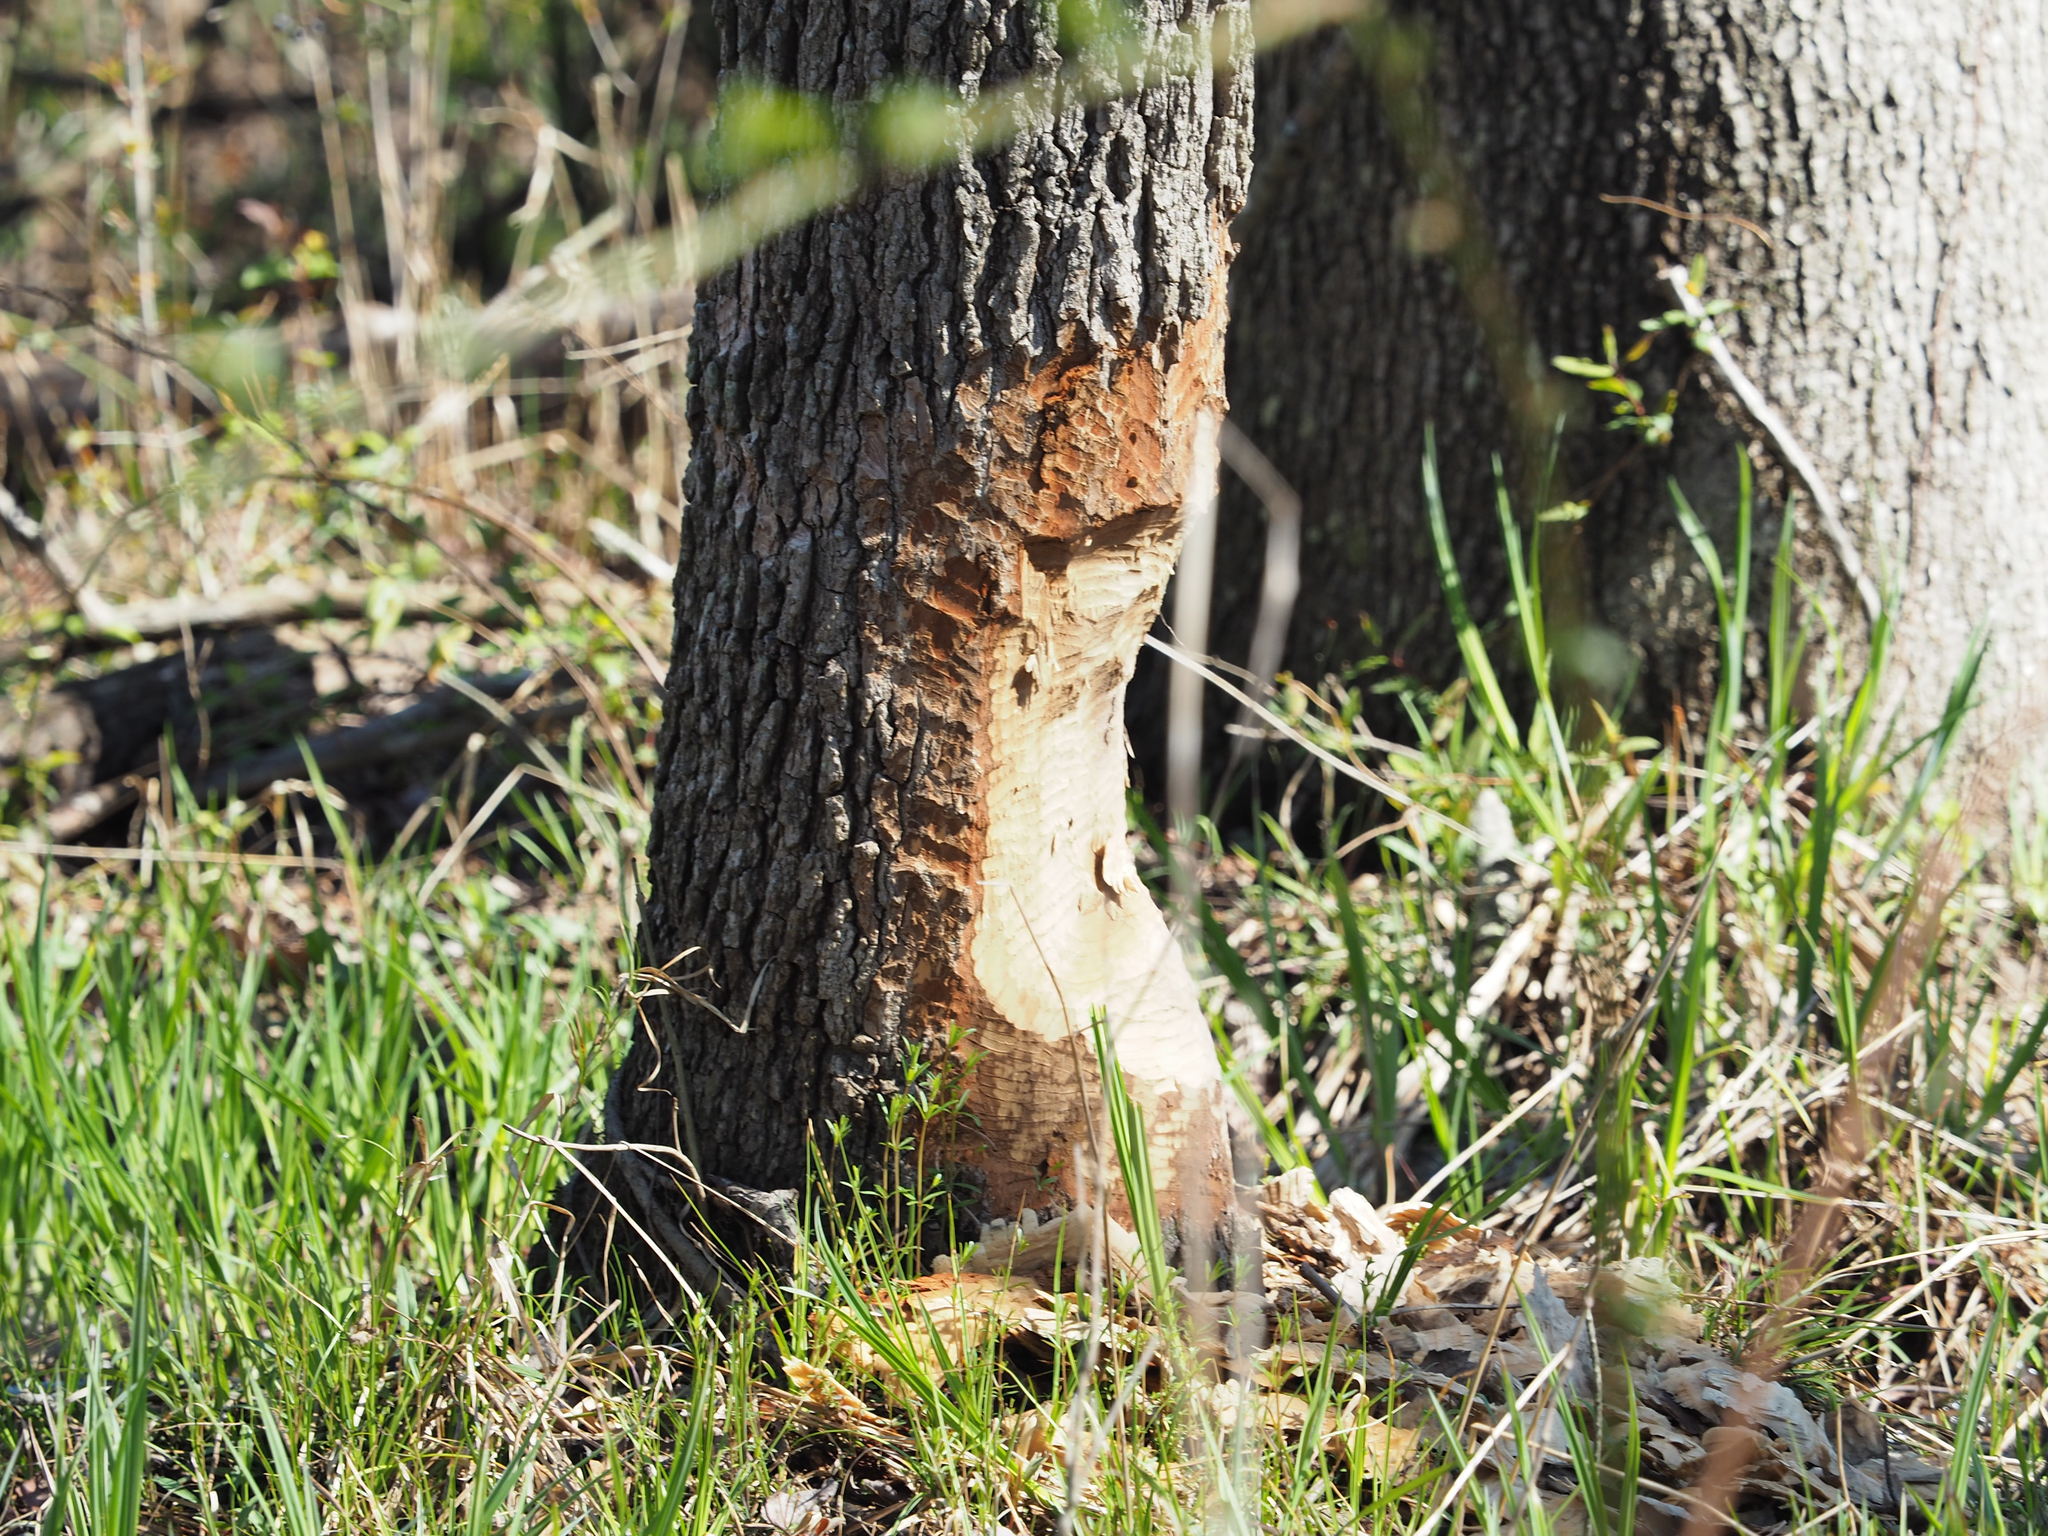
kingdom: Animalia
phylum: Chordata
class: Mammalia
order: Rodentia
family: Castoridae
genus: Castor
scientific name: Castor canadensis
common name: American beaver
